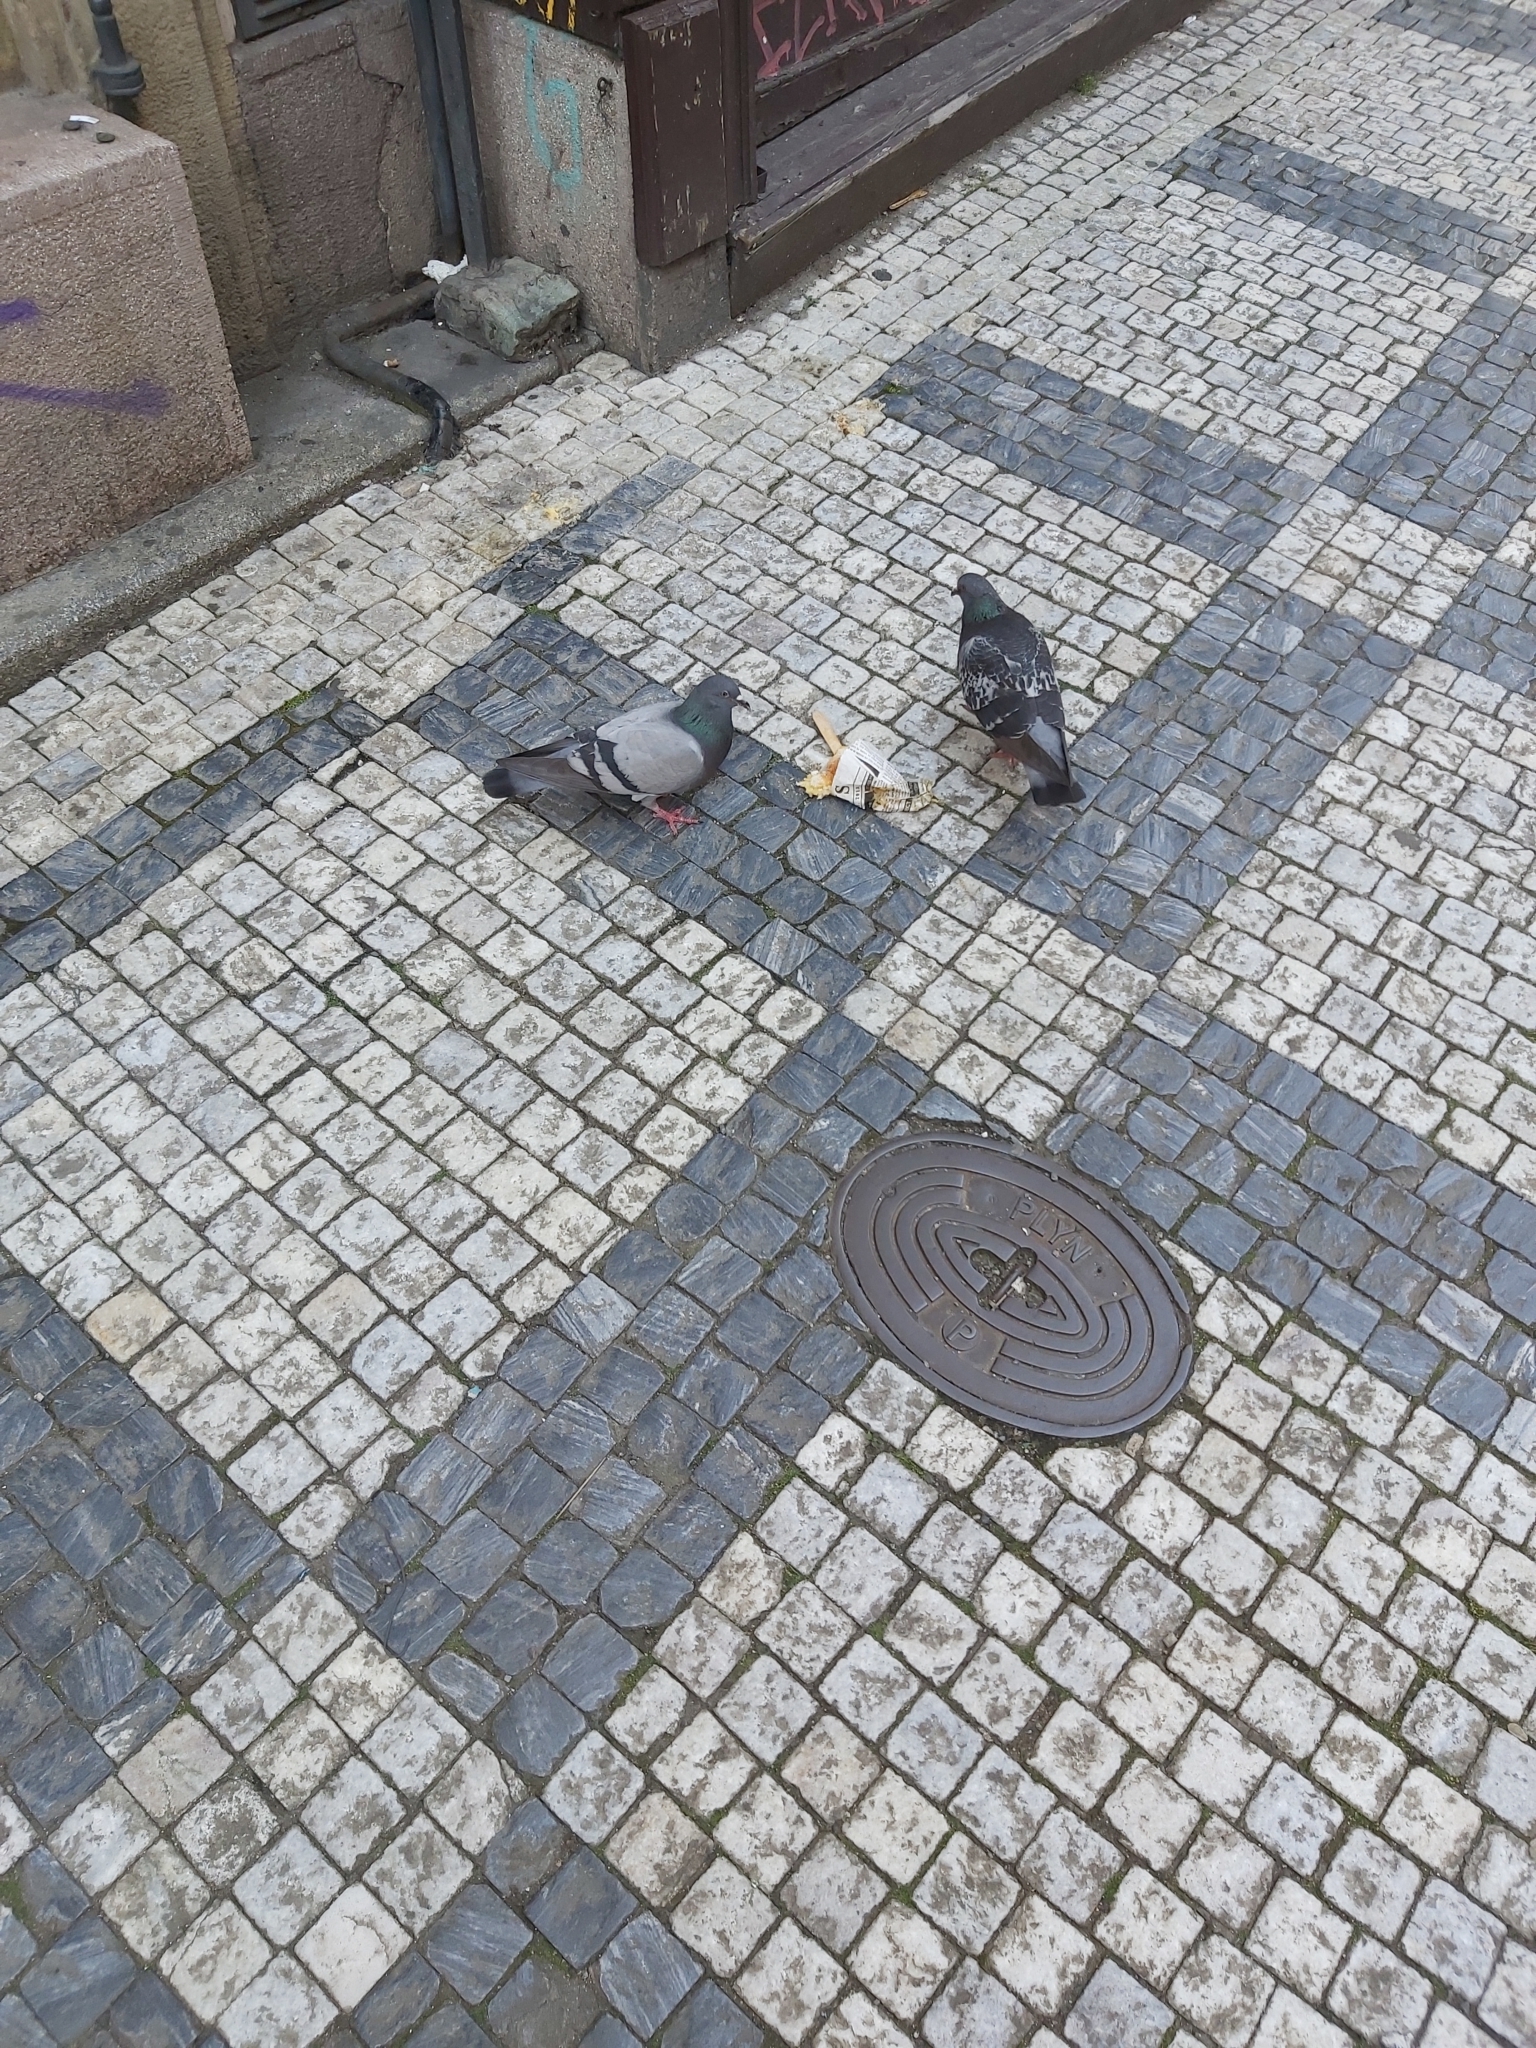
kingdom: Animalia
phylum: Chordata
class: Aves
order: Columbiformes
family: Columbidae
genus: Columba
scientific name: Columba livia
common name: Rock pigeon
